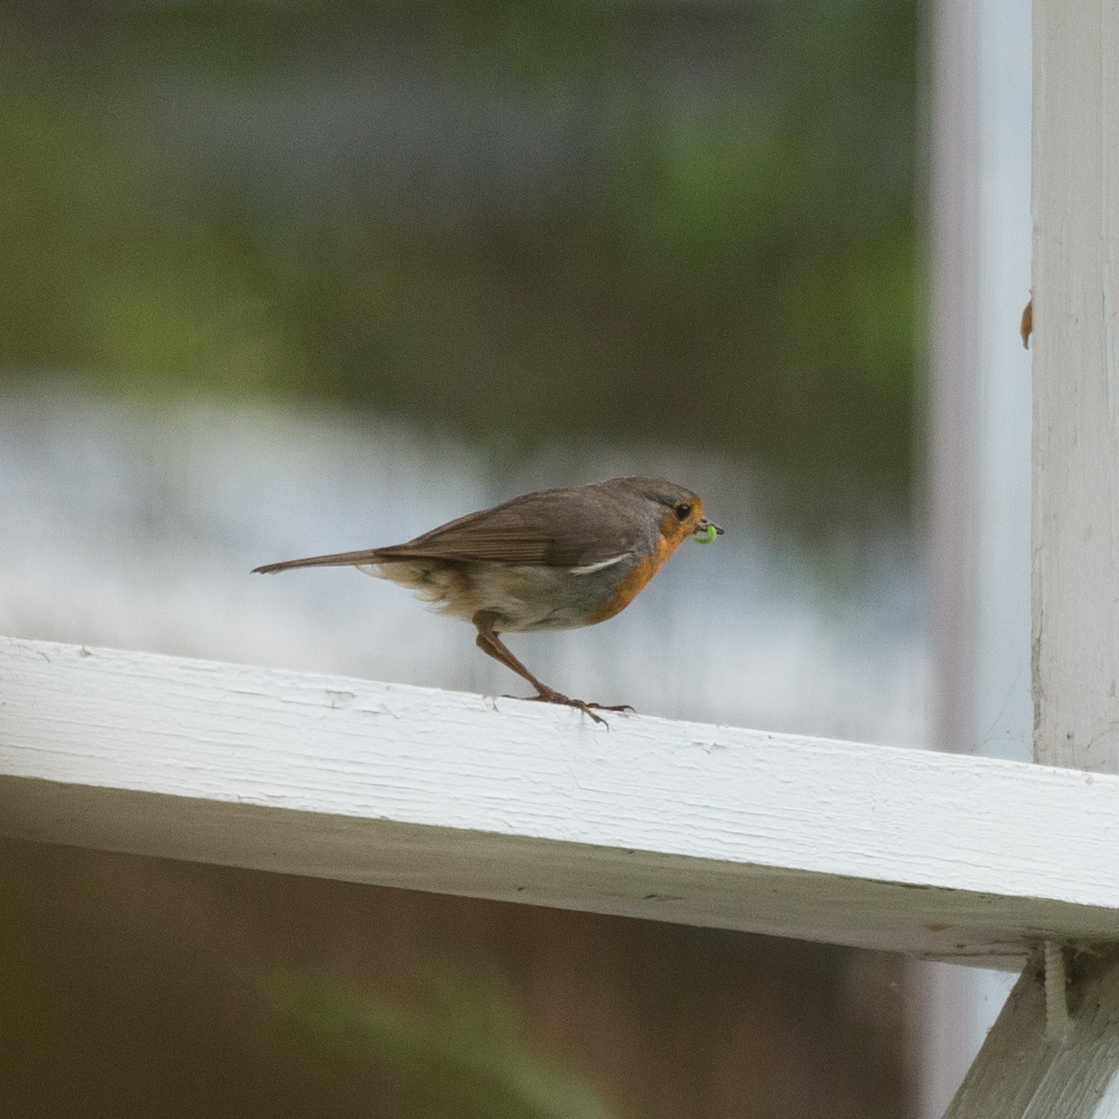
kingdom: Animalia
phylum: Chordata
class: Aves
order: Passeriformes
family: Muscicapidae
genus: Erithacus
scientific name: Erithacus rubecula
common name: European robin
